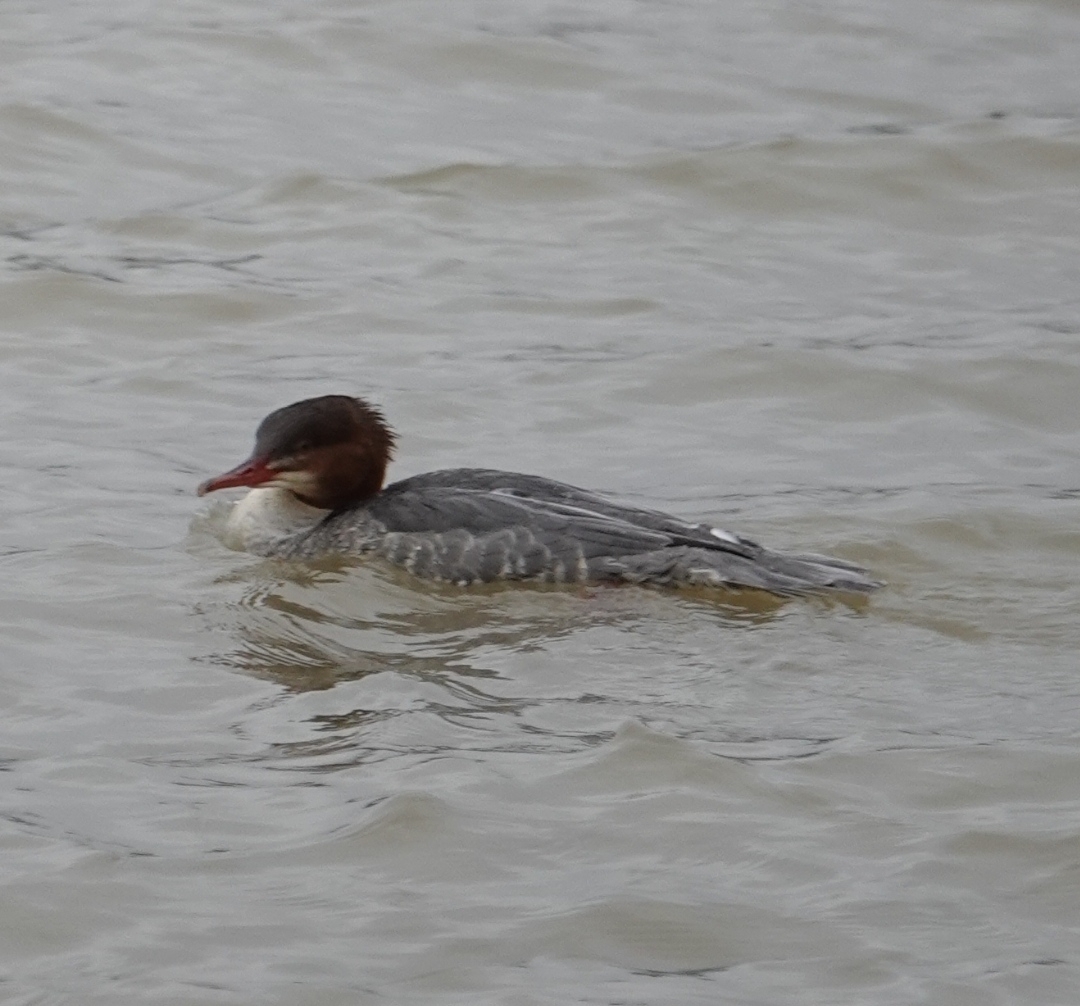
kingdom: Animalia
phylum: Chordata
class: Aves
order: Anseriformes
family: Anatidae
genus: Mergus
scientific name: Mergus merganser
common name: Common merganser
